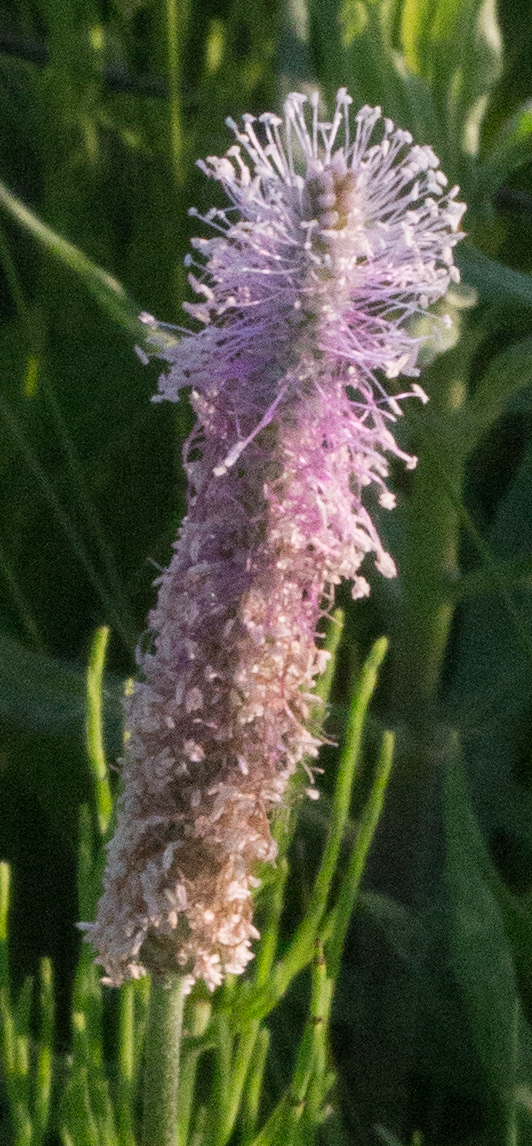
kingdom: Plantae
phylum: Tracheophyta
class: Magnoliopsida
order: Lamiales
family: Plantaginaceae
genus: Plantago
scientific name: Plantago media
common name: Hoary plantain
